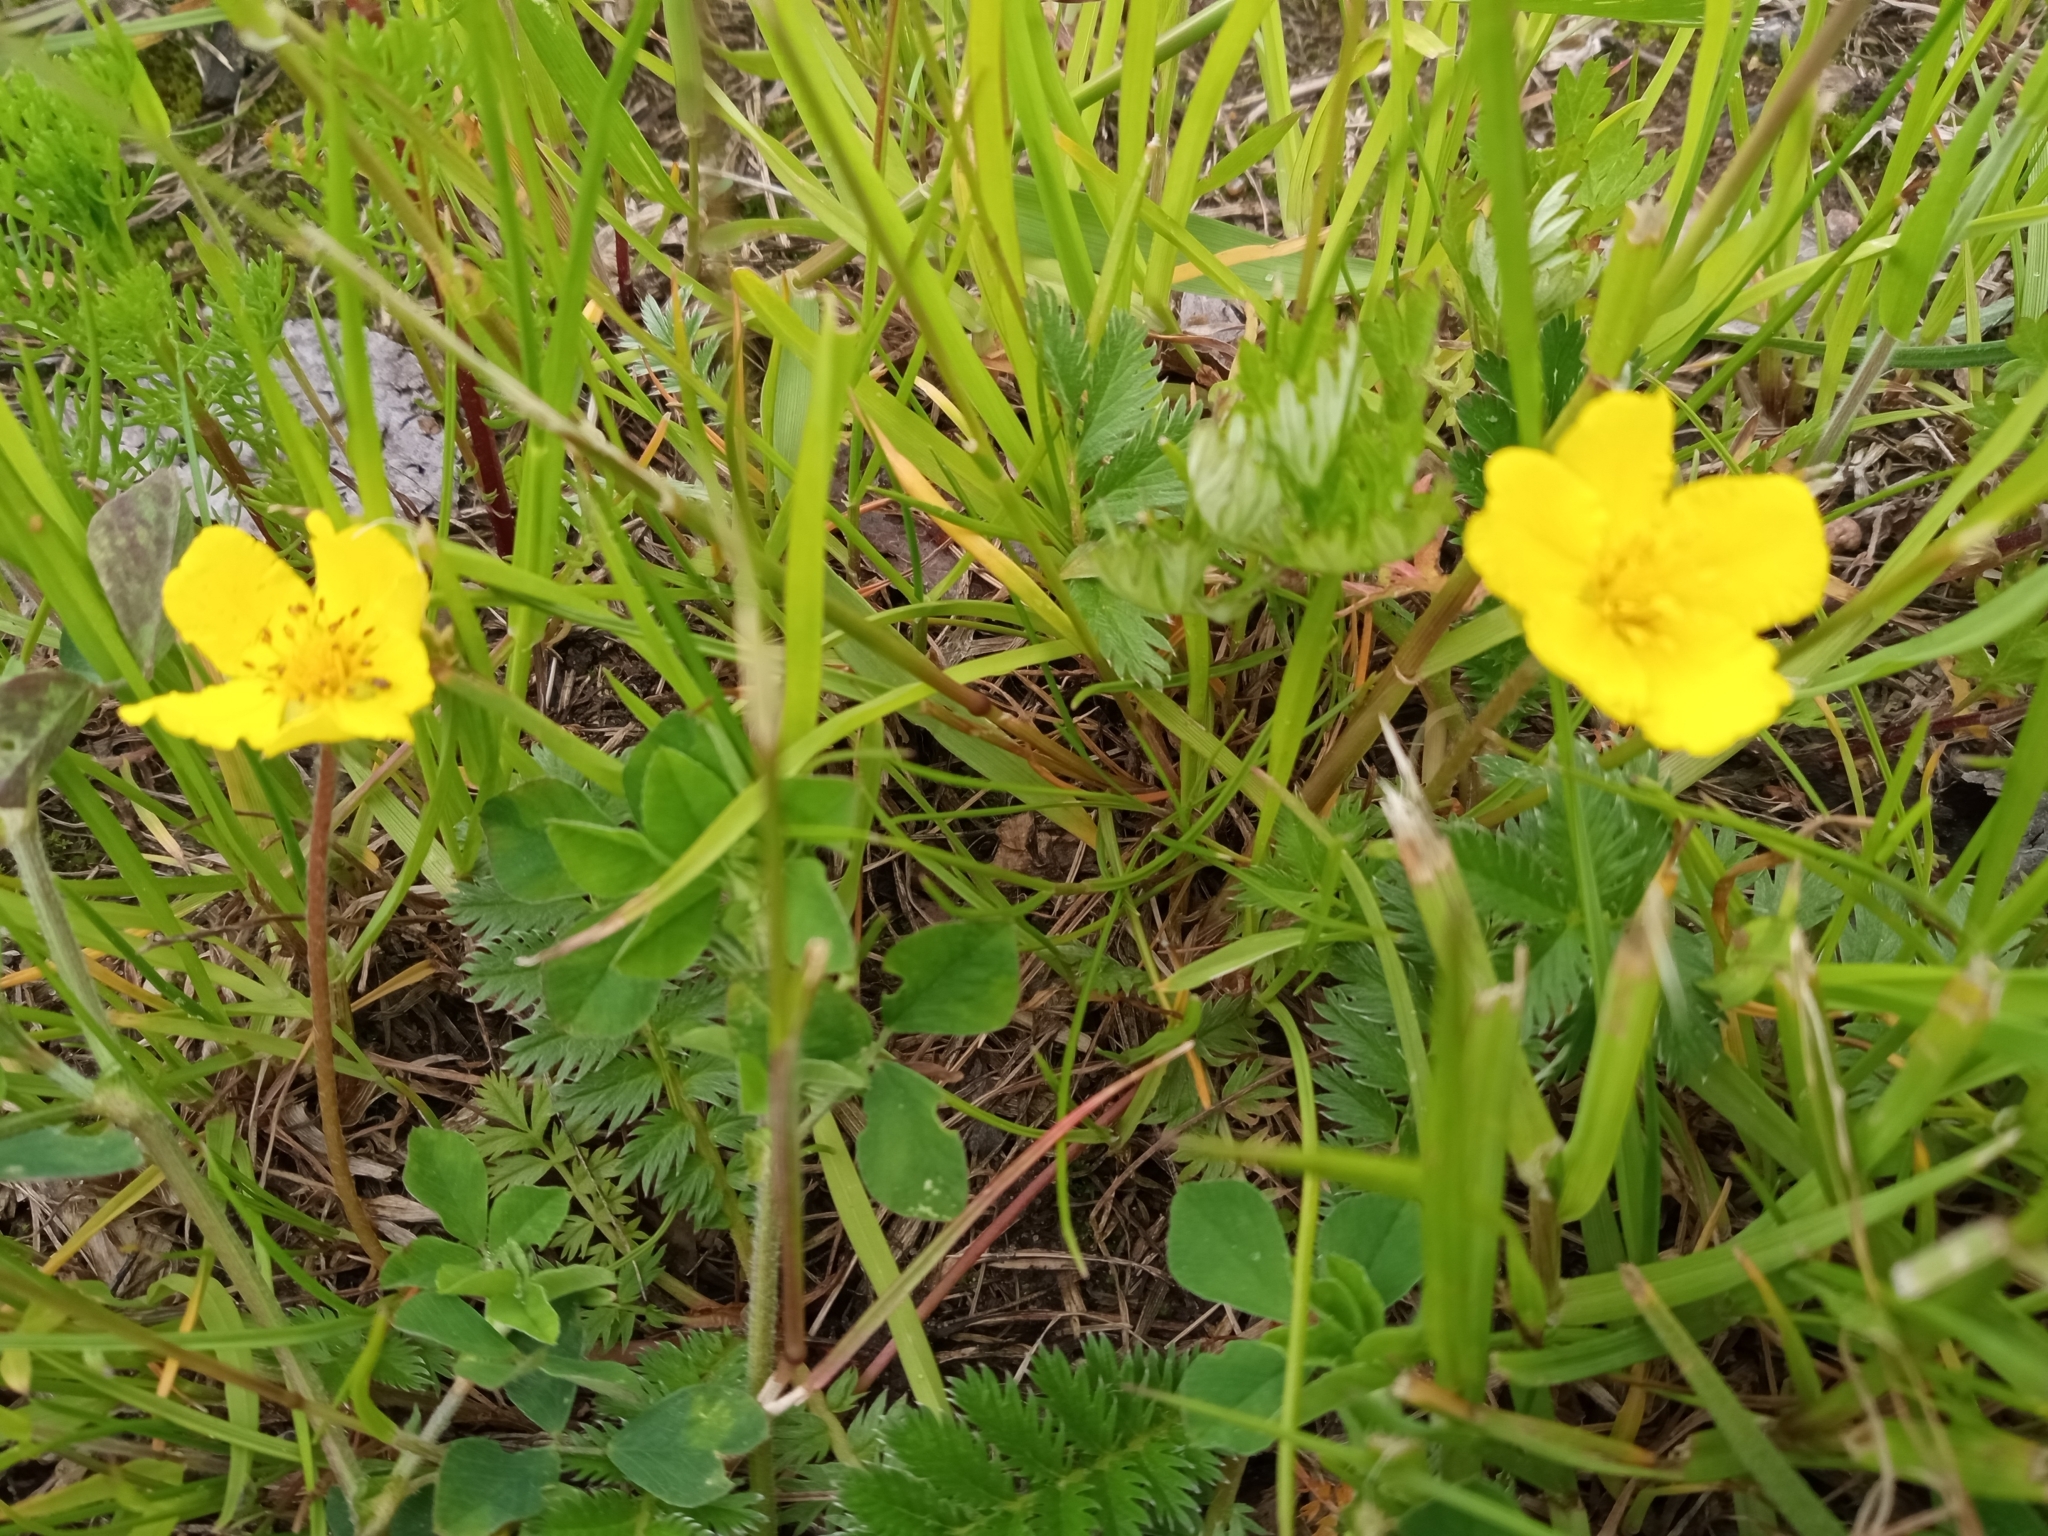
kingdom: Plantae
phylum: Tracheophyta
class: Magnoliopsida
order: Rosales
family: Rosaceae
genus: Argentina
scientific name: Argentina anserina
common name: Common silverweed
